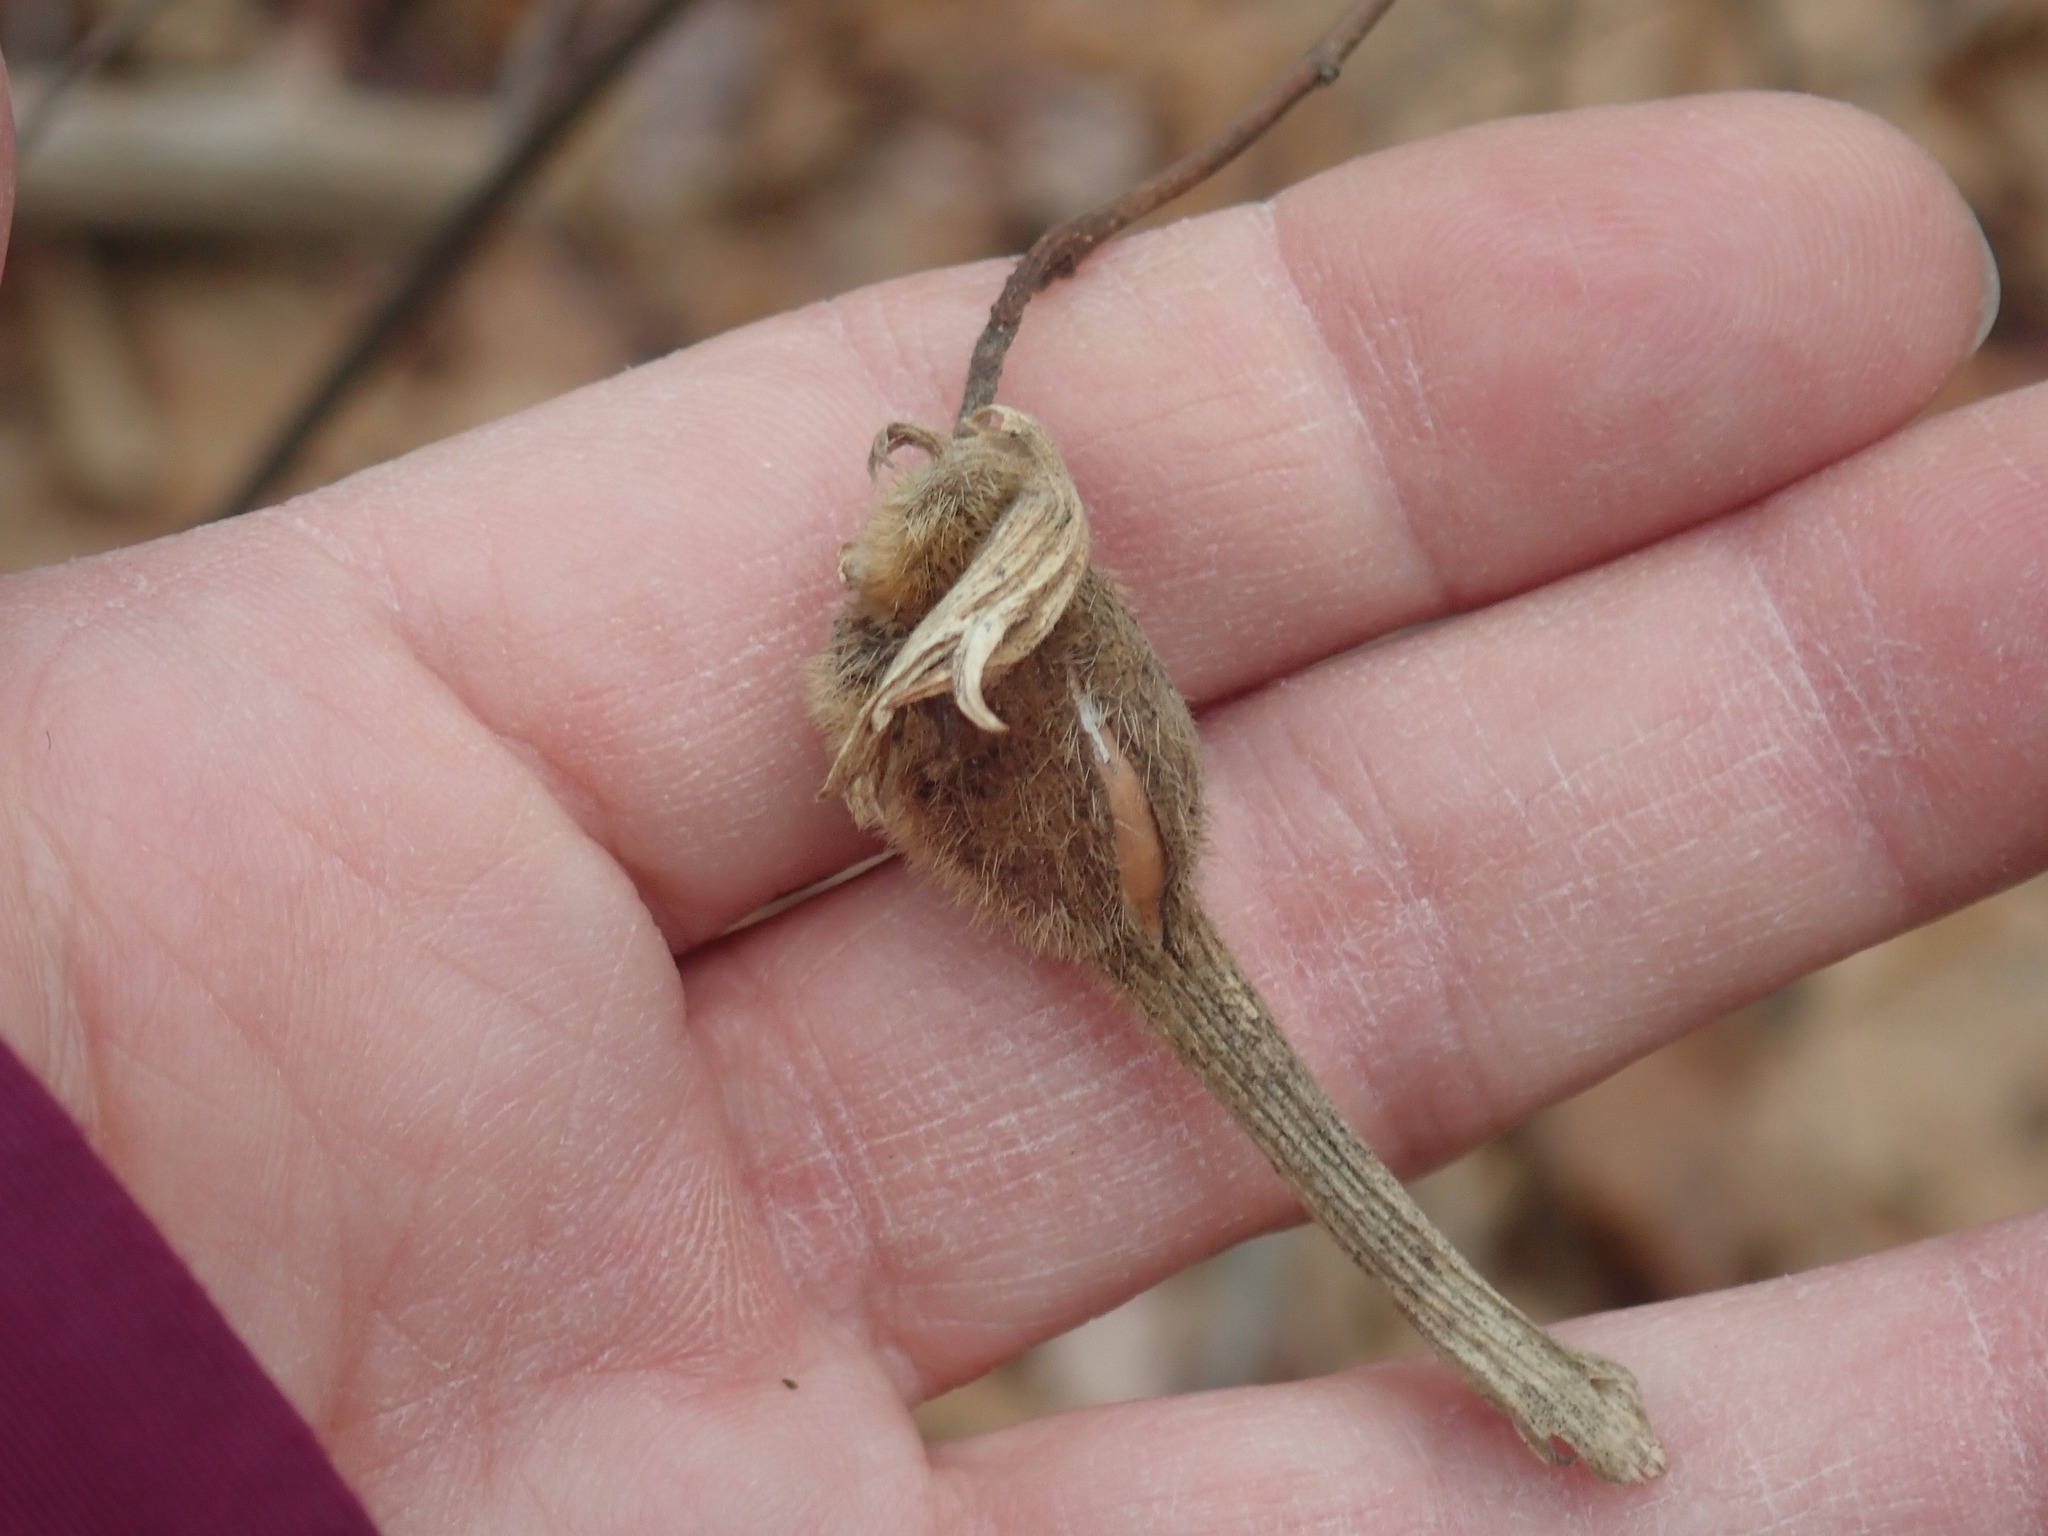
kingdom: Plantae
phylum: Tracheophyta
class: Magnoliopsida
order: Fagales
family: Betulaceae
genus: Corylus
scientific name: Corylus cornuta
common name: Beaked hazel
